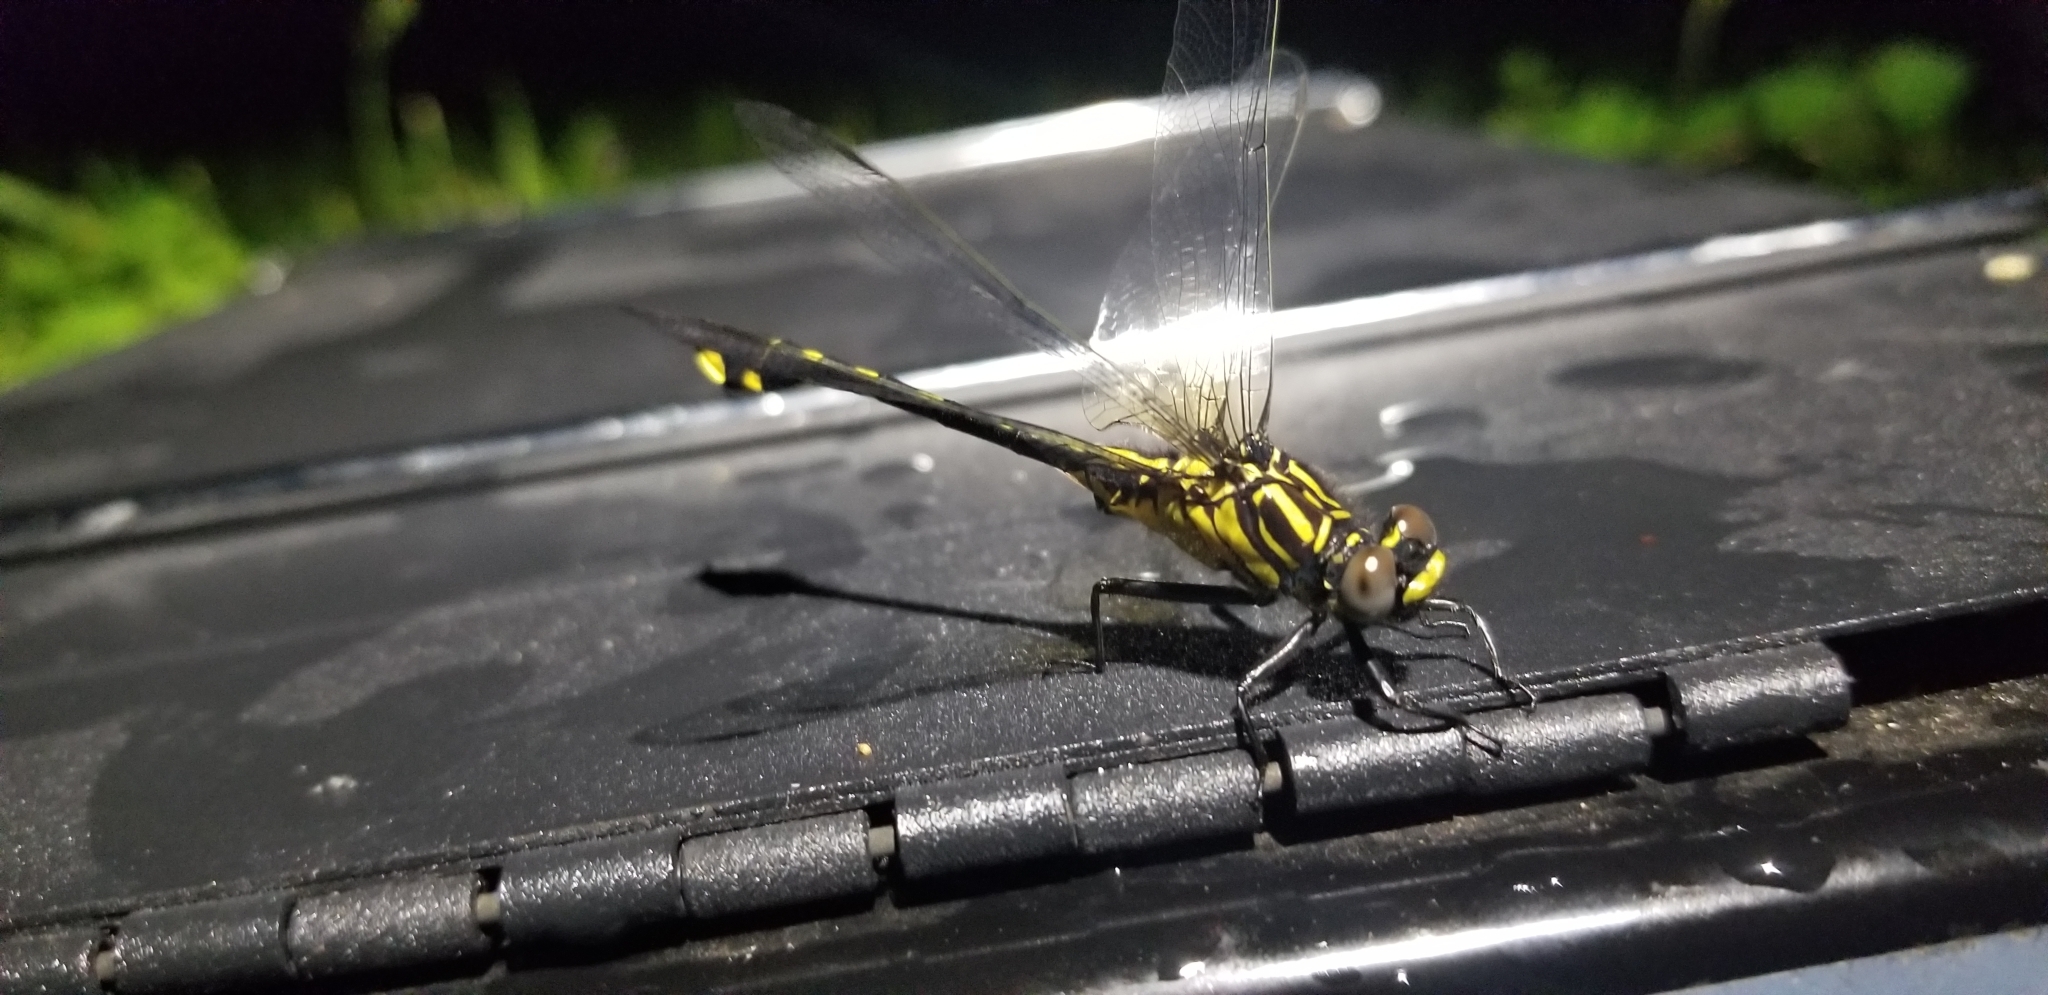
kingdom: Animalia
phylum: Arthropoda
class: Insecta
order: Odonata
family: Gomphidae
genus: Gomphurus
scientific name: Gomphurus vastus
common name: Cobra clubtail
